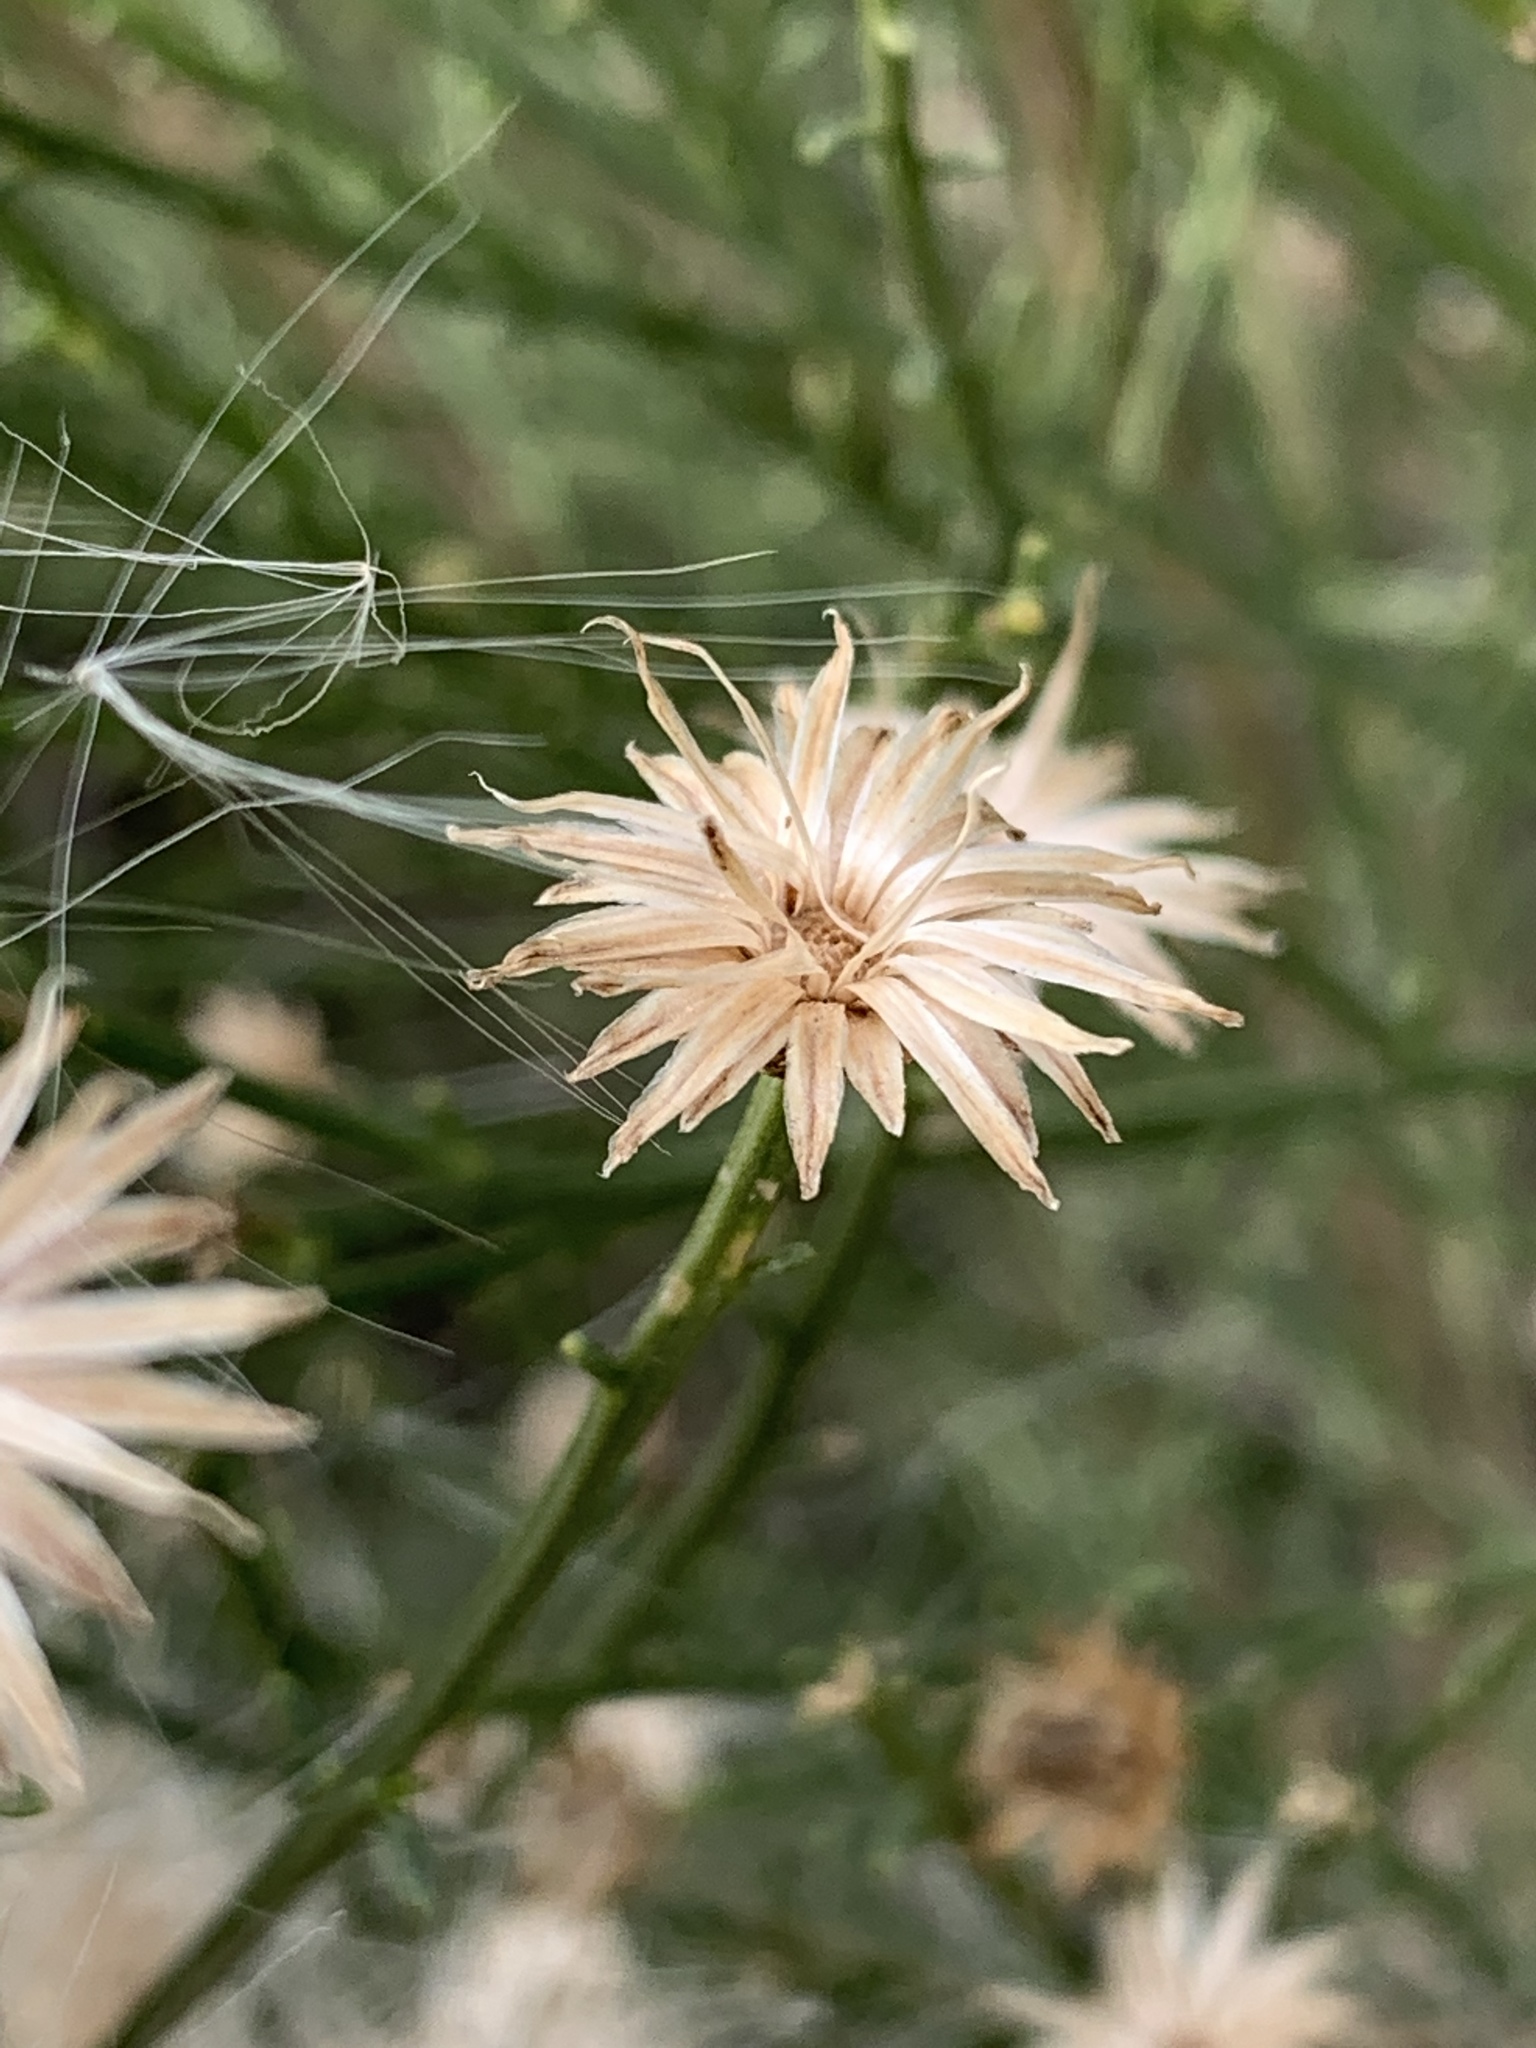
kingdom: Plantae
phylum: Tracheophyta
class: Magnoliopsida
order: Asterales
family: Asteraceae
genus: Baccharis
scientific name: Baccharis sarothroides
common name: Desert-broom
